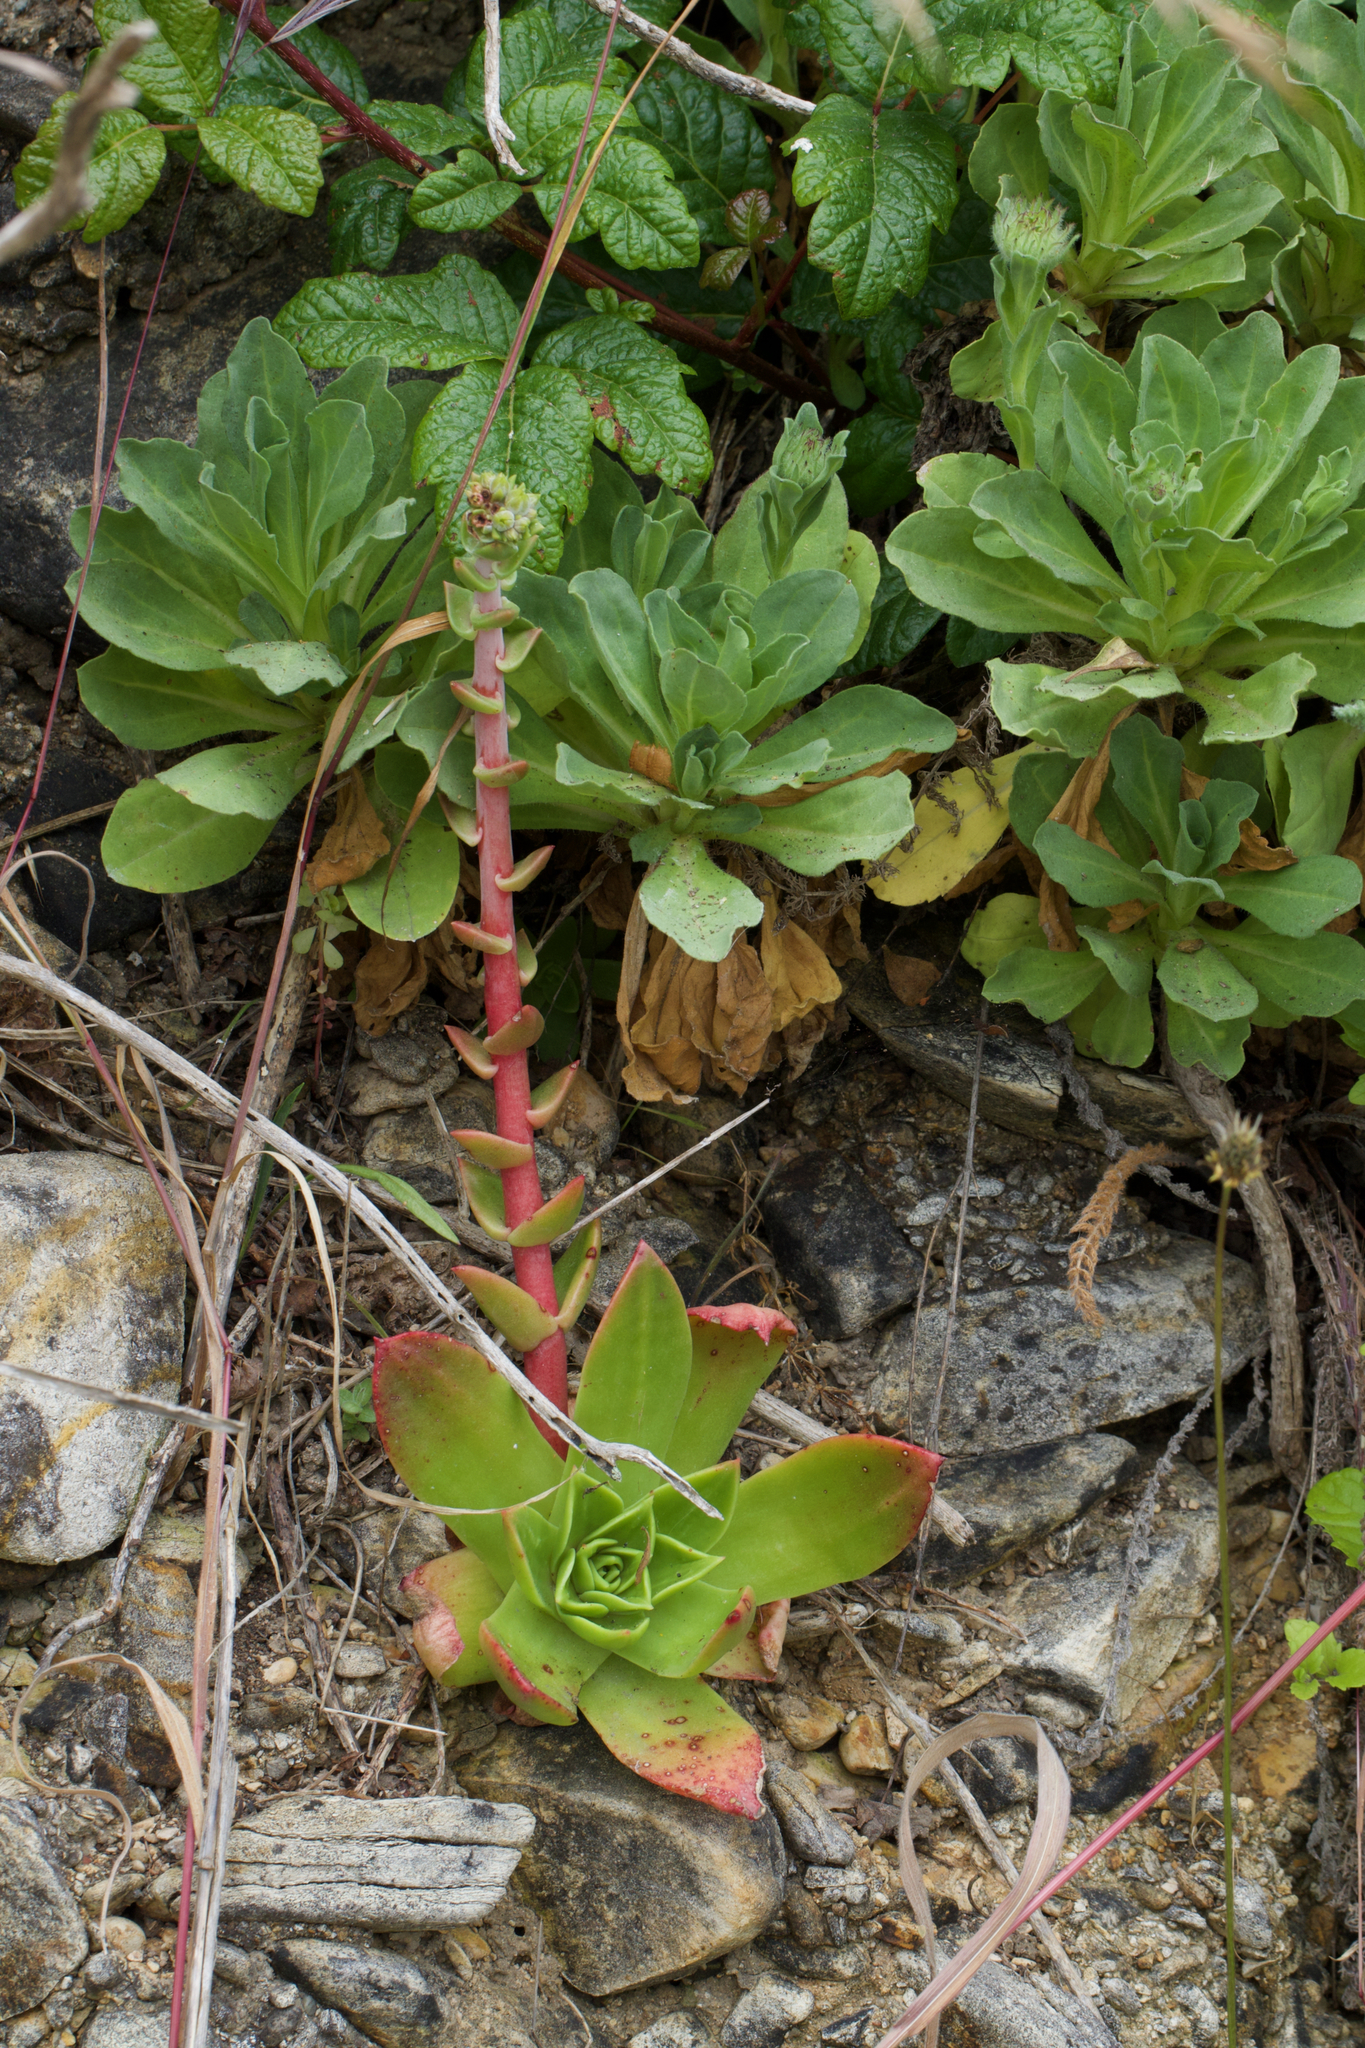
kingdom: Plantae
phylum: Tracheophyta
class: Magnoliopsida
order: Saxifragales
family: Crassulaceae
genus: Dudleya
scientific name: Dudleya caespitosa
